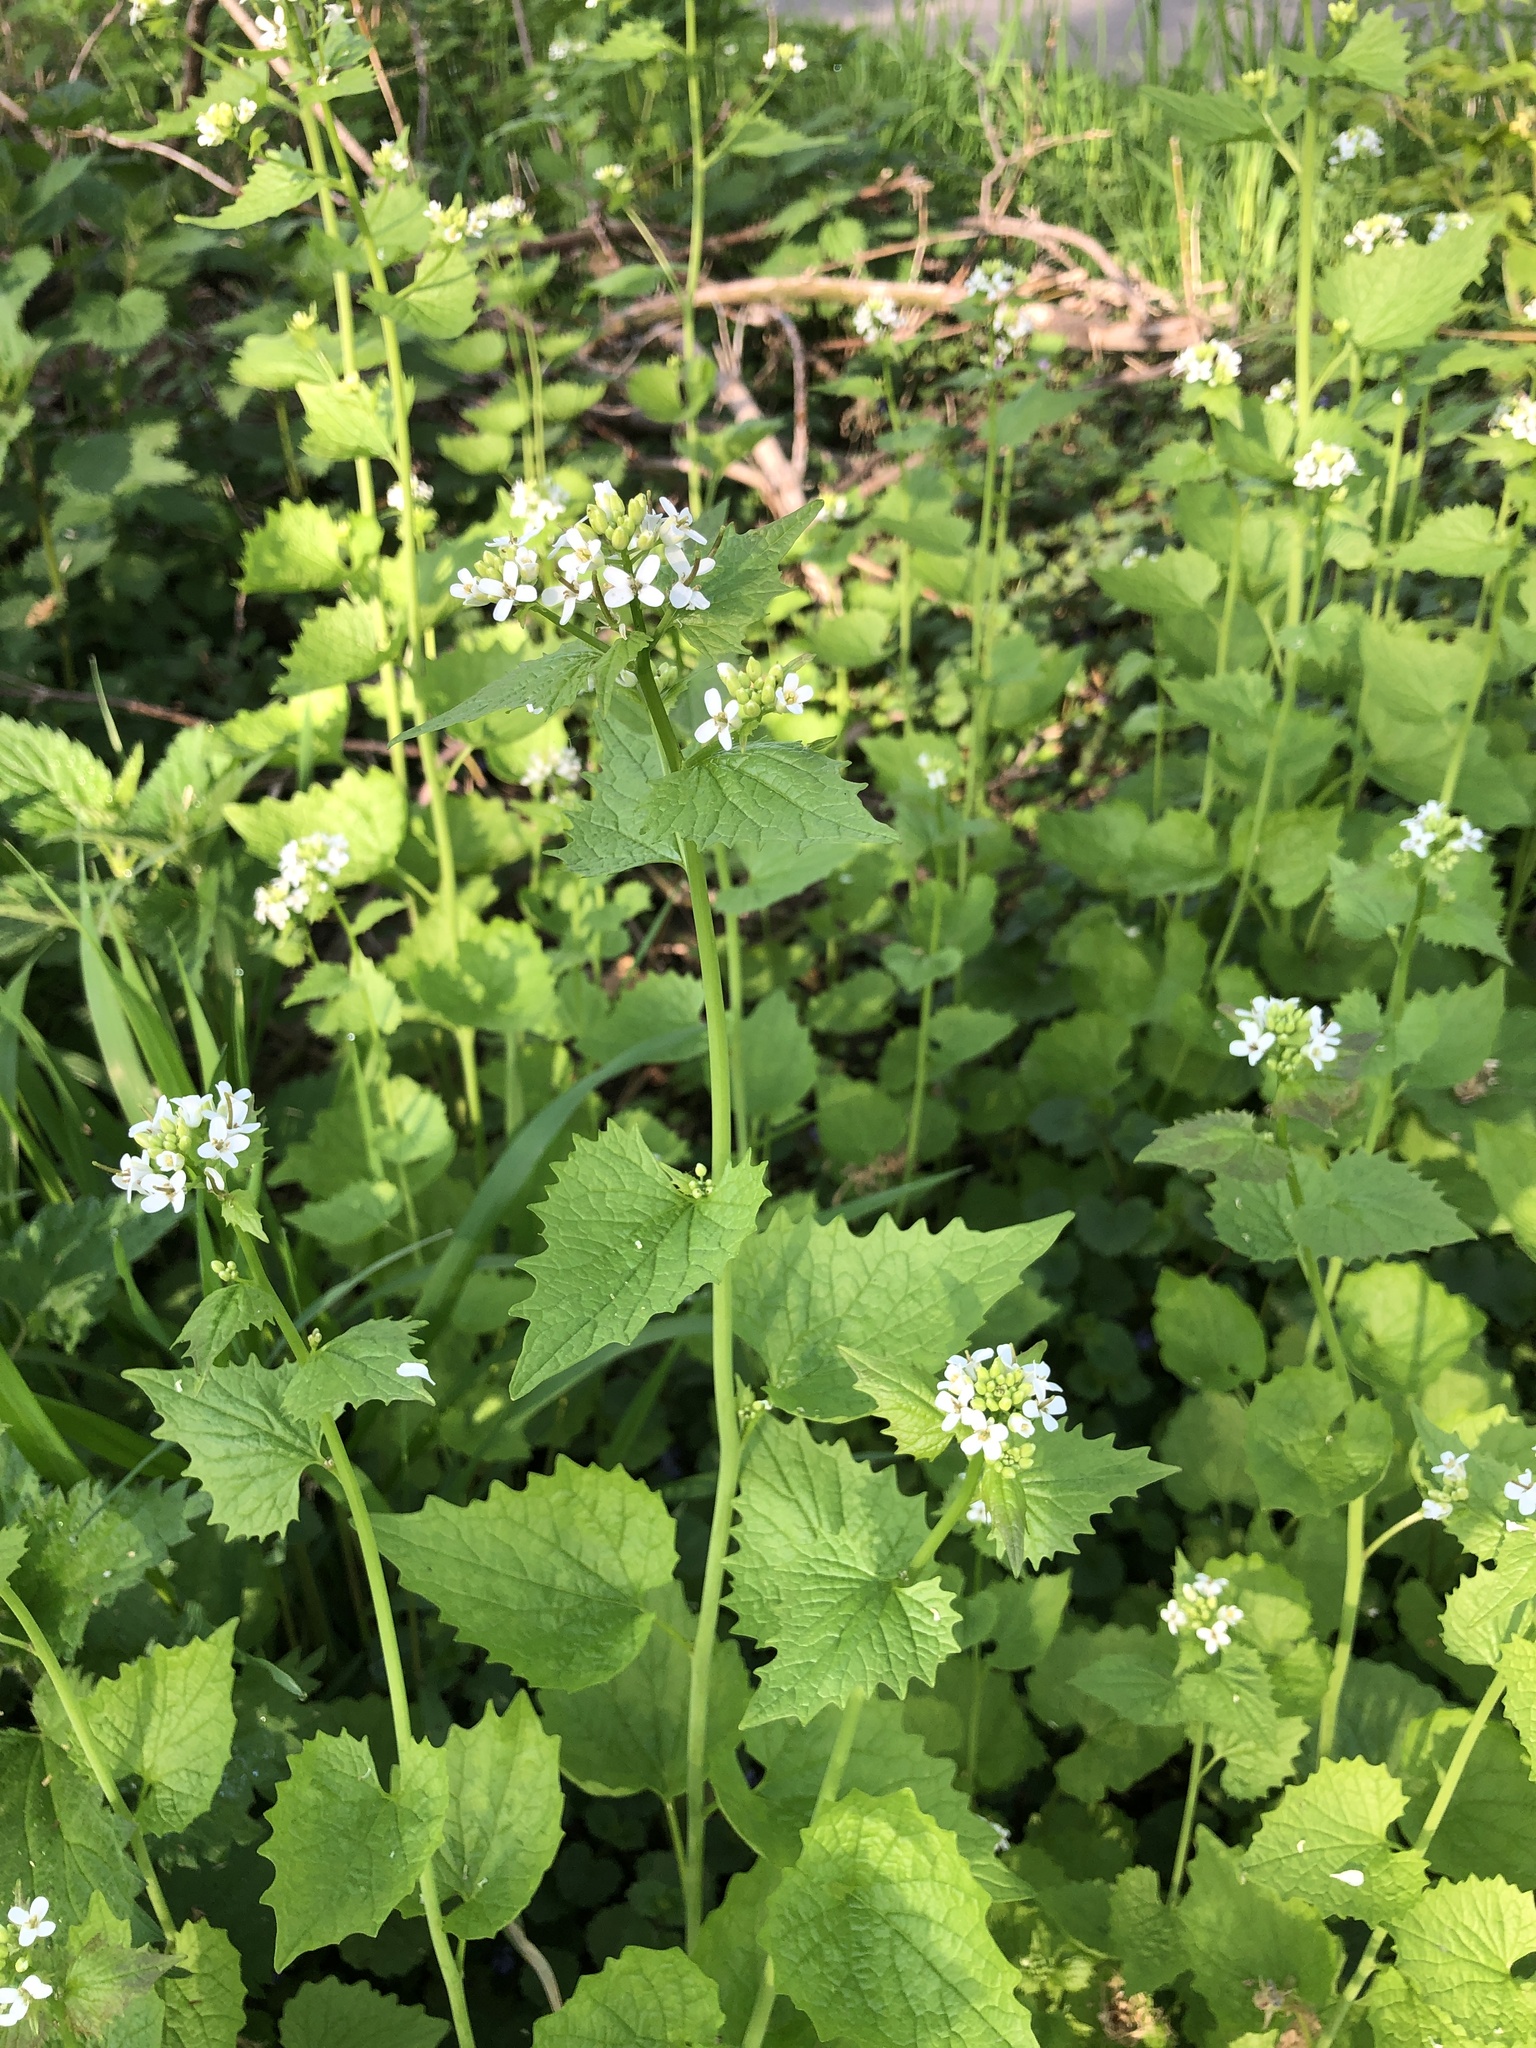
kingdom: Plantae
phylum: Tracheophyta
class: Magnoliopsida
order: Brassicales
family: Brassicaceae
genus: Alliaria
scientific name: Alliaria petiolata
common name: Garlic mustard
